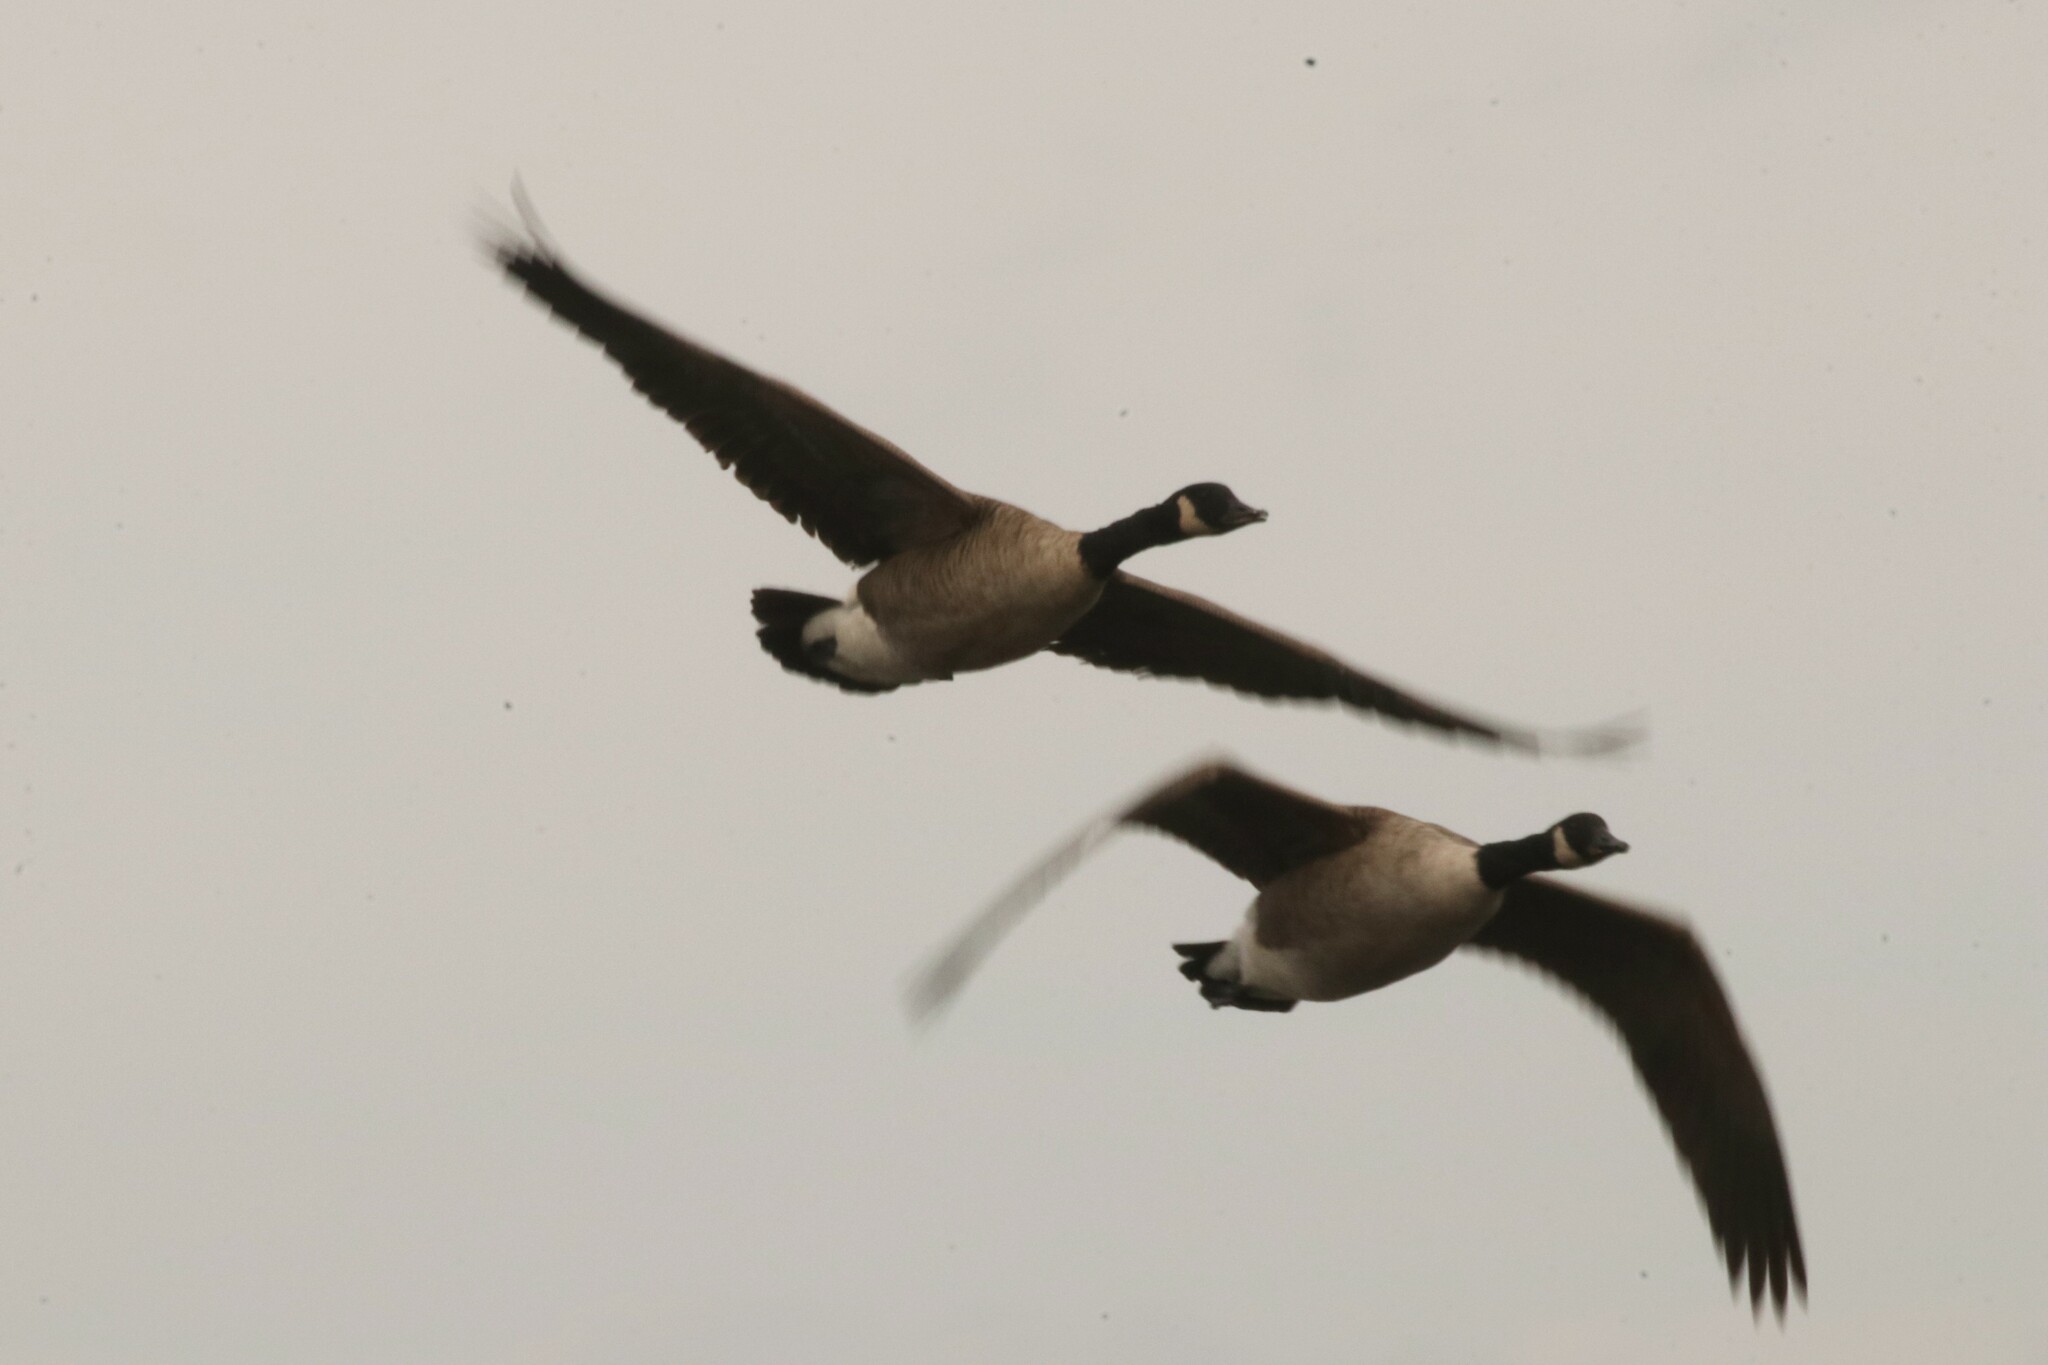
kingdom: Animalia
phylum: Chordata
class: Aves
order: Anseriformes
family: Anatidae
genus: Branta
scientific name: Branta canadensis
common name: Canada goose
